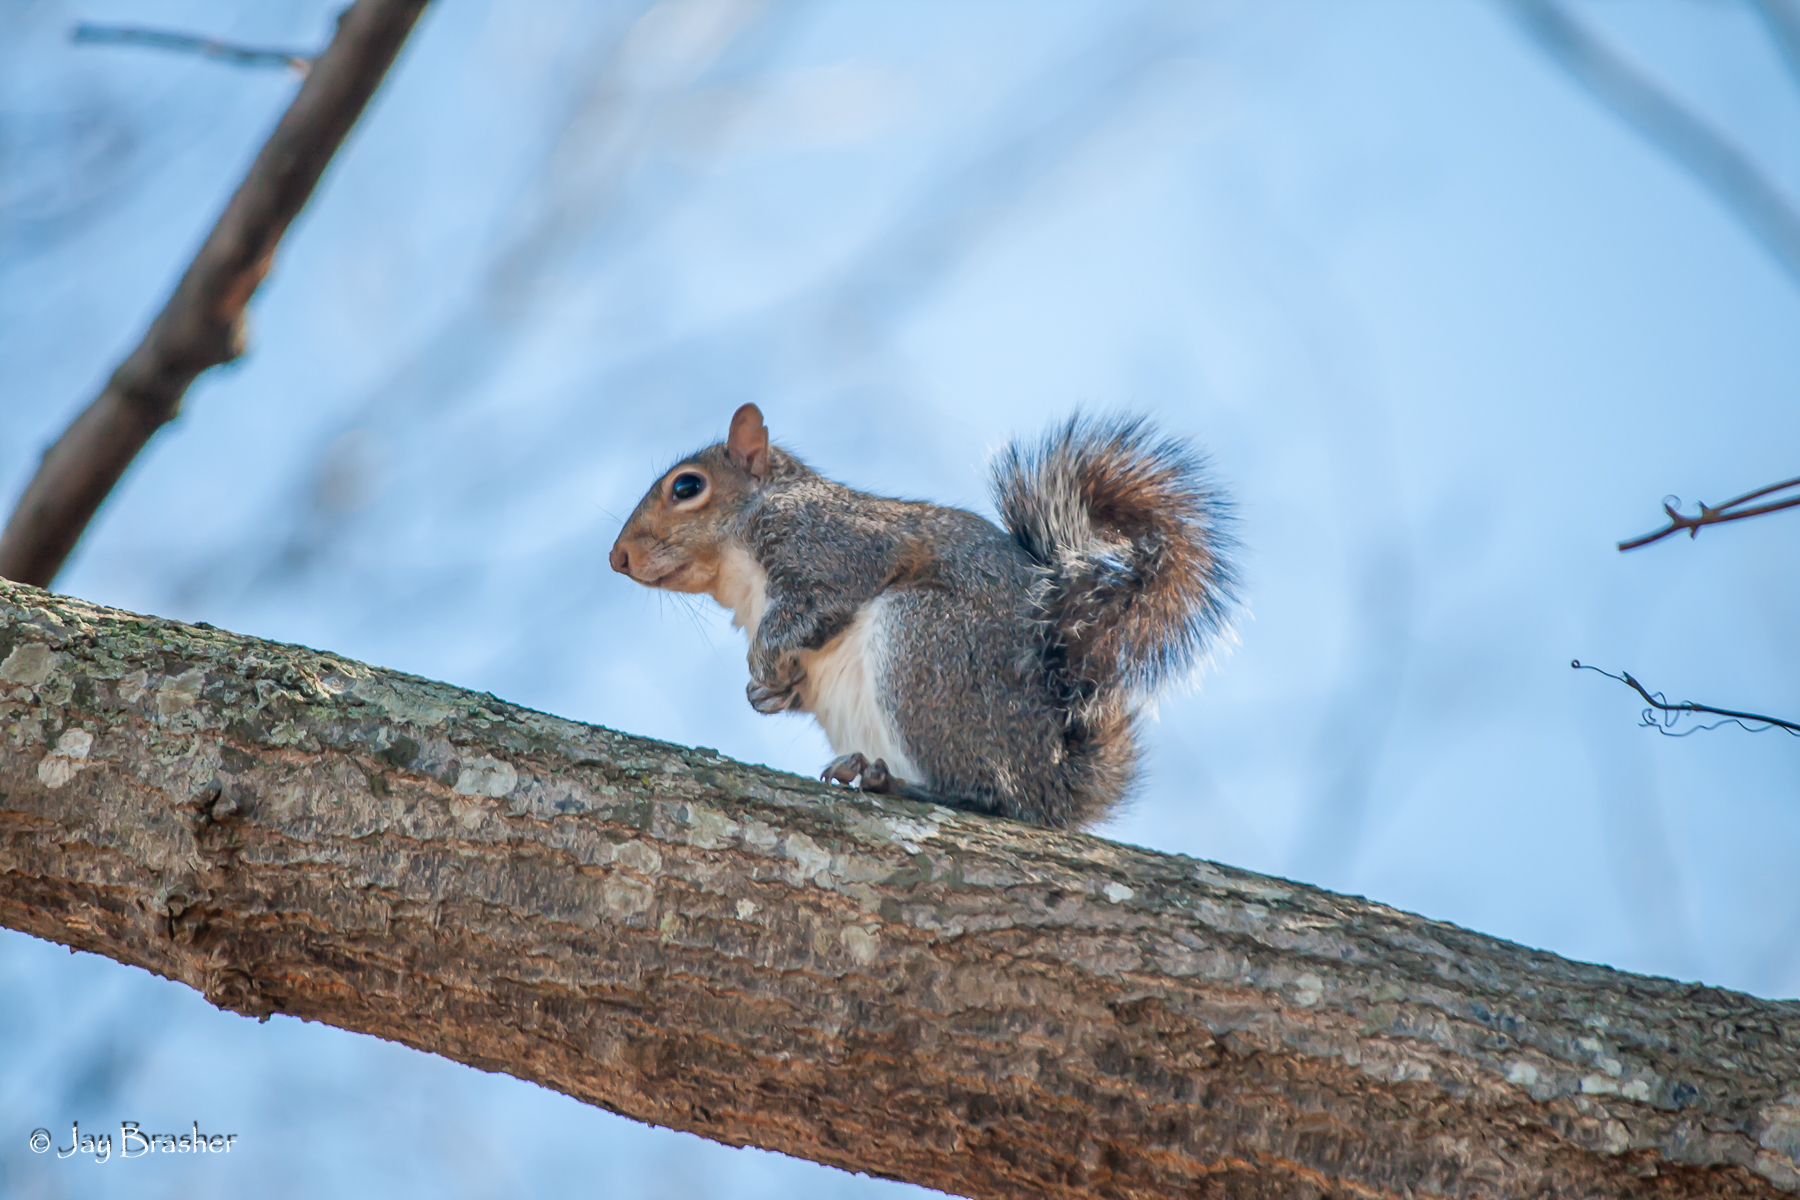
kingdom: Animalia
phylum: Chordata
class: Mammalia
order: Rodentia
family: Sciuridae
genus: Sciurus
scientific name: Sciurus carolinensis
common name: Eastern gray squirrel
